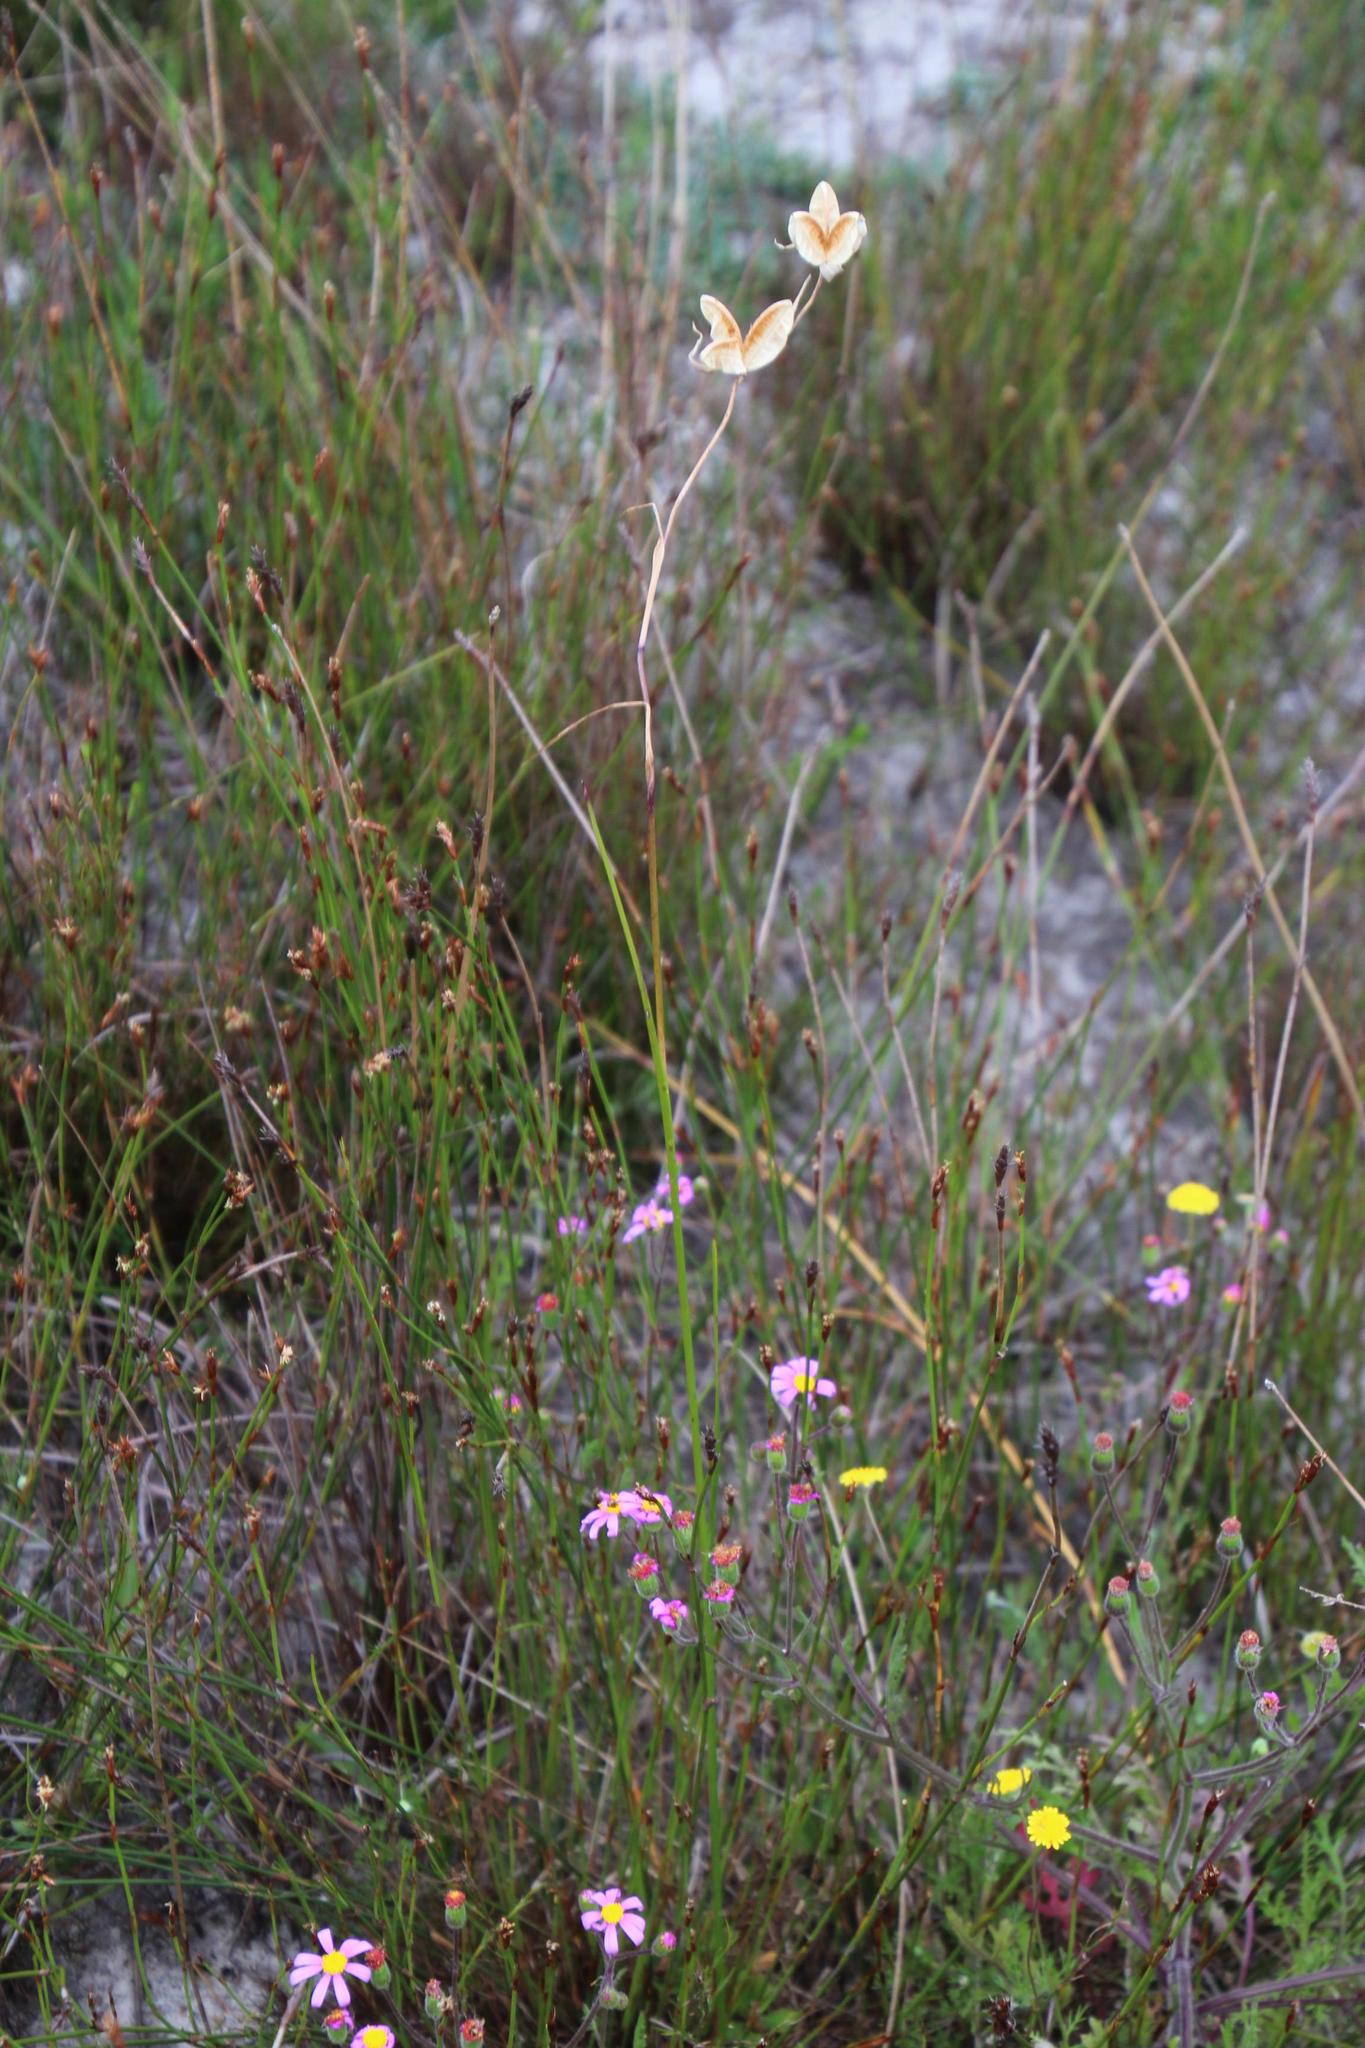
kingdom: Plantae
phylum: Tracheophyta
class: Liliopsida
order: Asparagales
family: Iridaceae
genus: Hesperantha
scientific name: Hesperantha falcata
